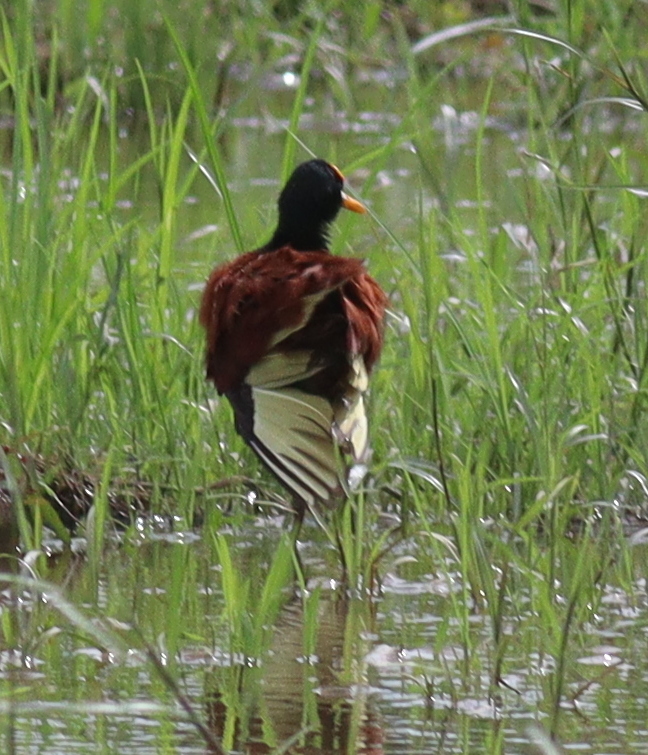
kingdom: Animalia
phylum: Chordata
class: Aves
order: Charadriiformes
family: Jacanidae
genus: Jacana
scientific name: Jacana spinosa
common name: Northern jacana
